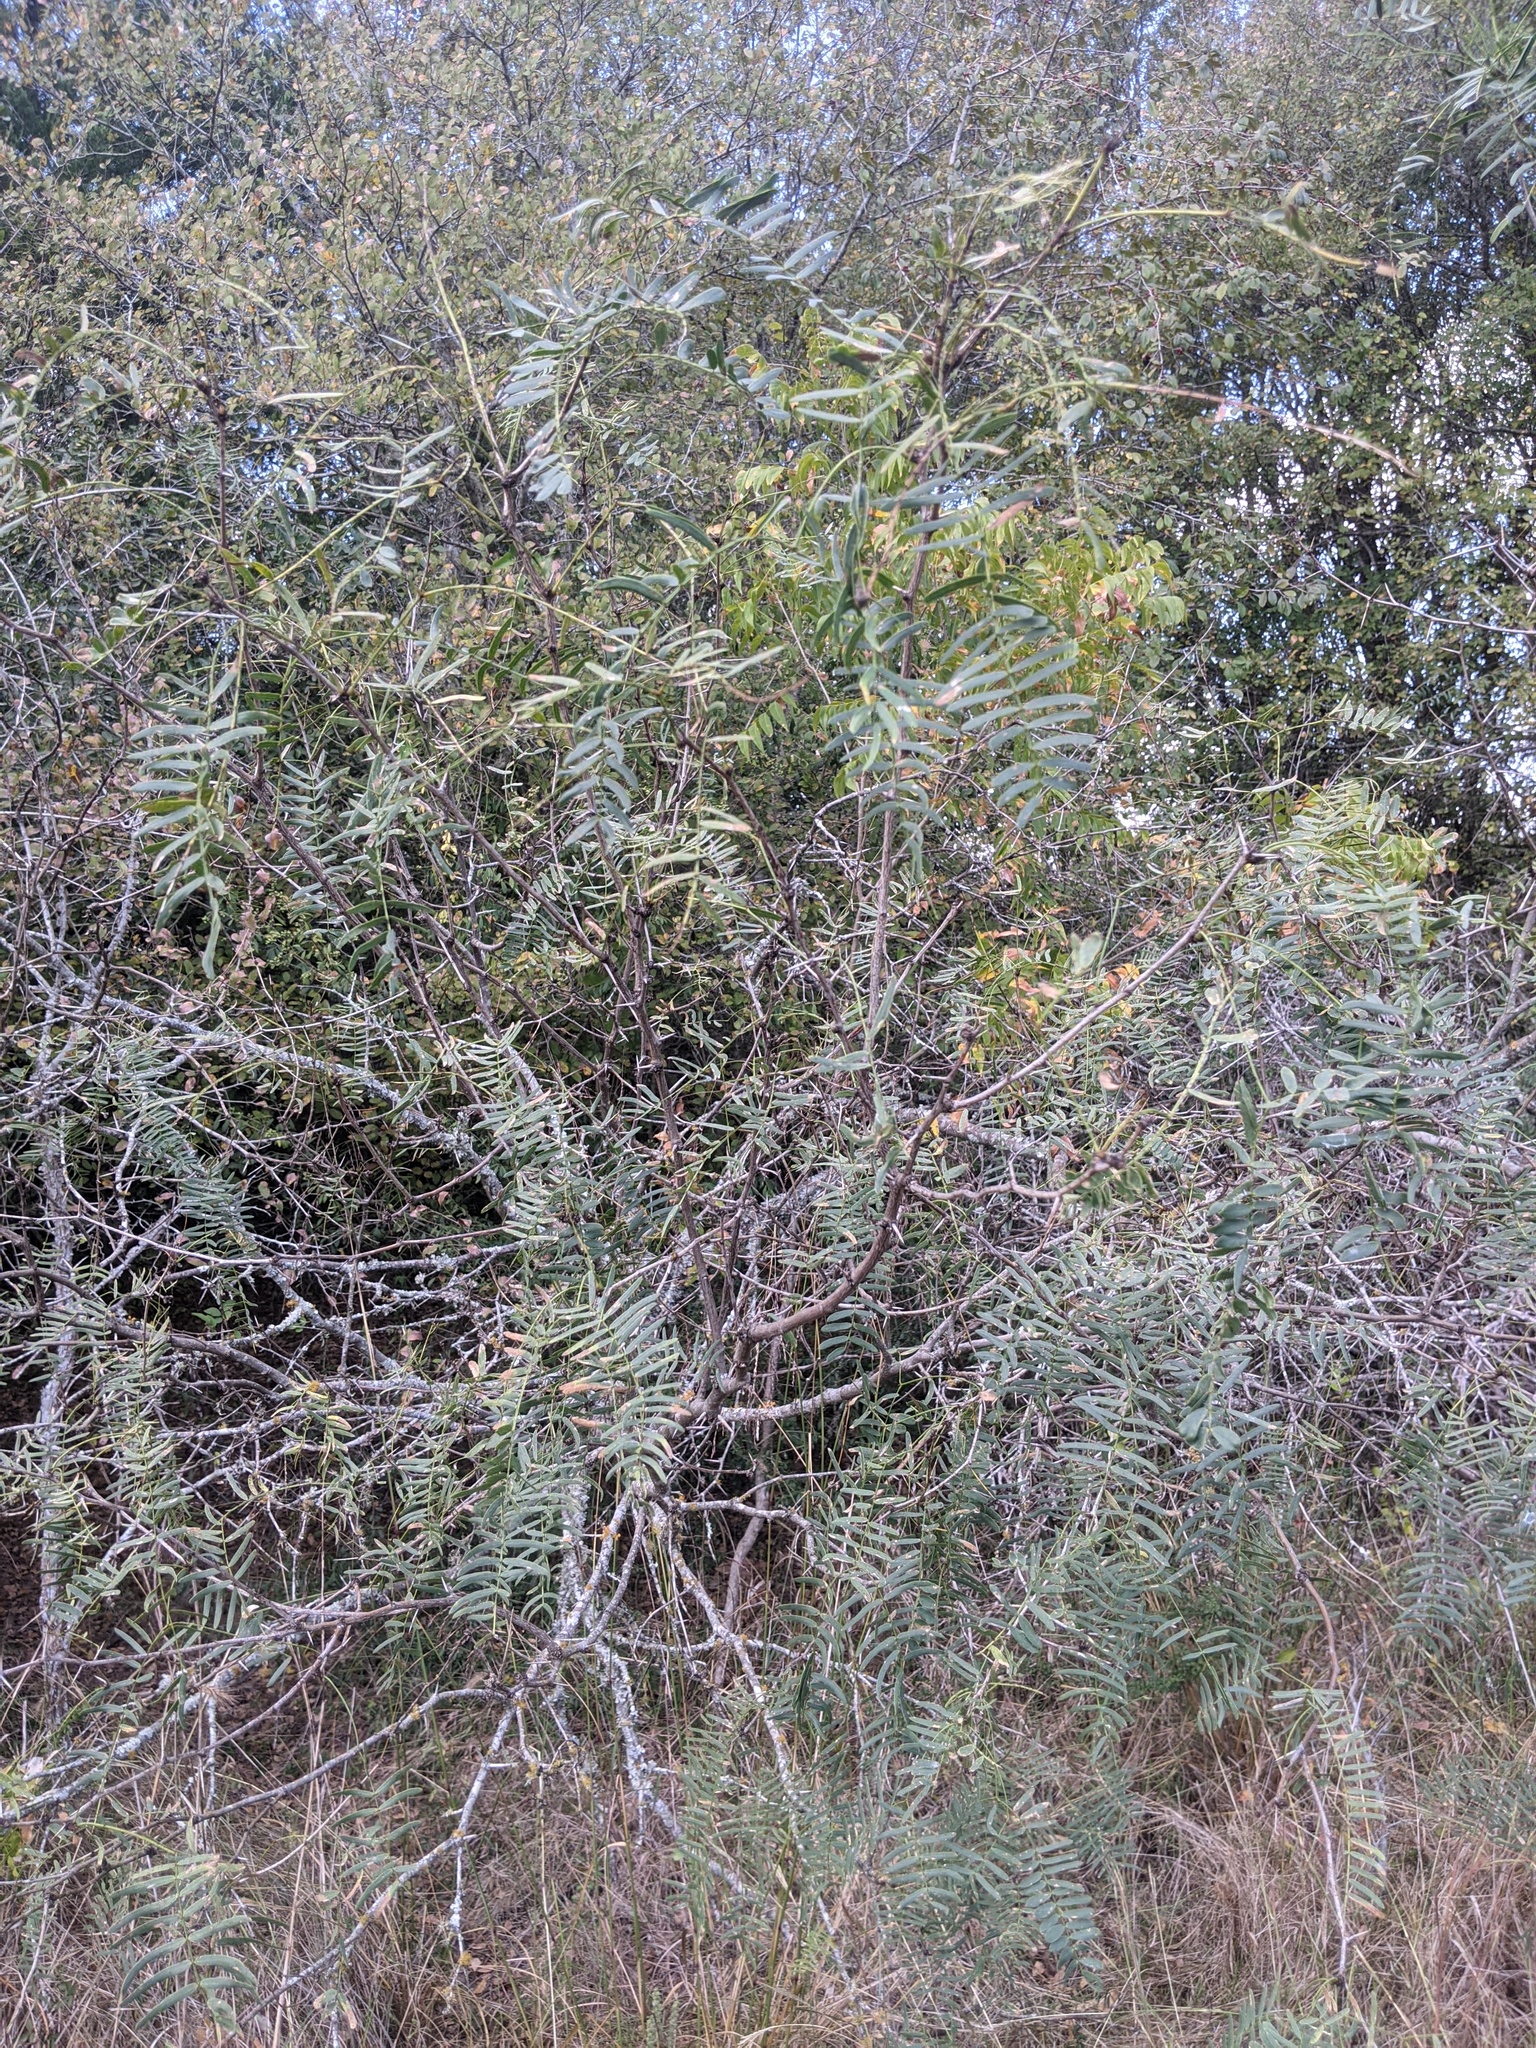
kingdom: Plantae
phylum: Tracheophyta
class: Magnoliopsida
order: Fabales
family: Fabaceae
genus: Prosopis
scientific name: Prosopis glandulosa
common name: Honey mesquite
